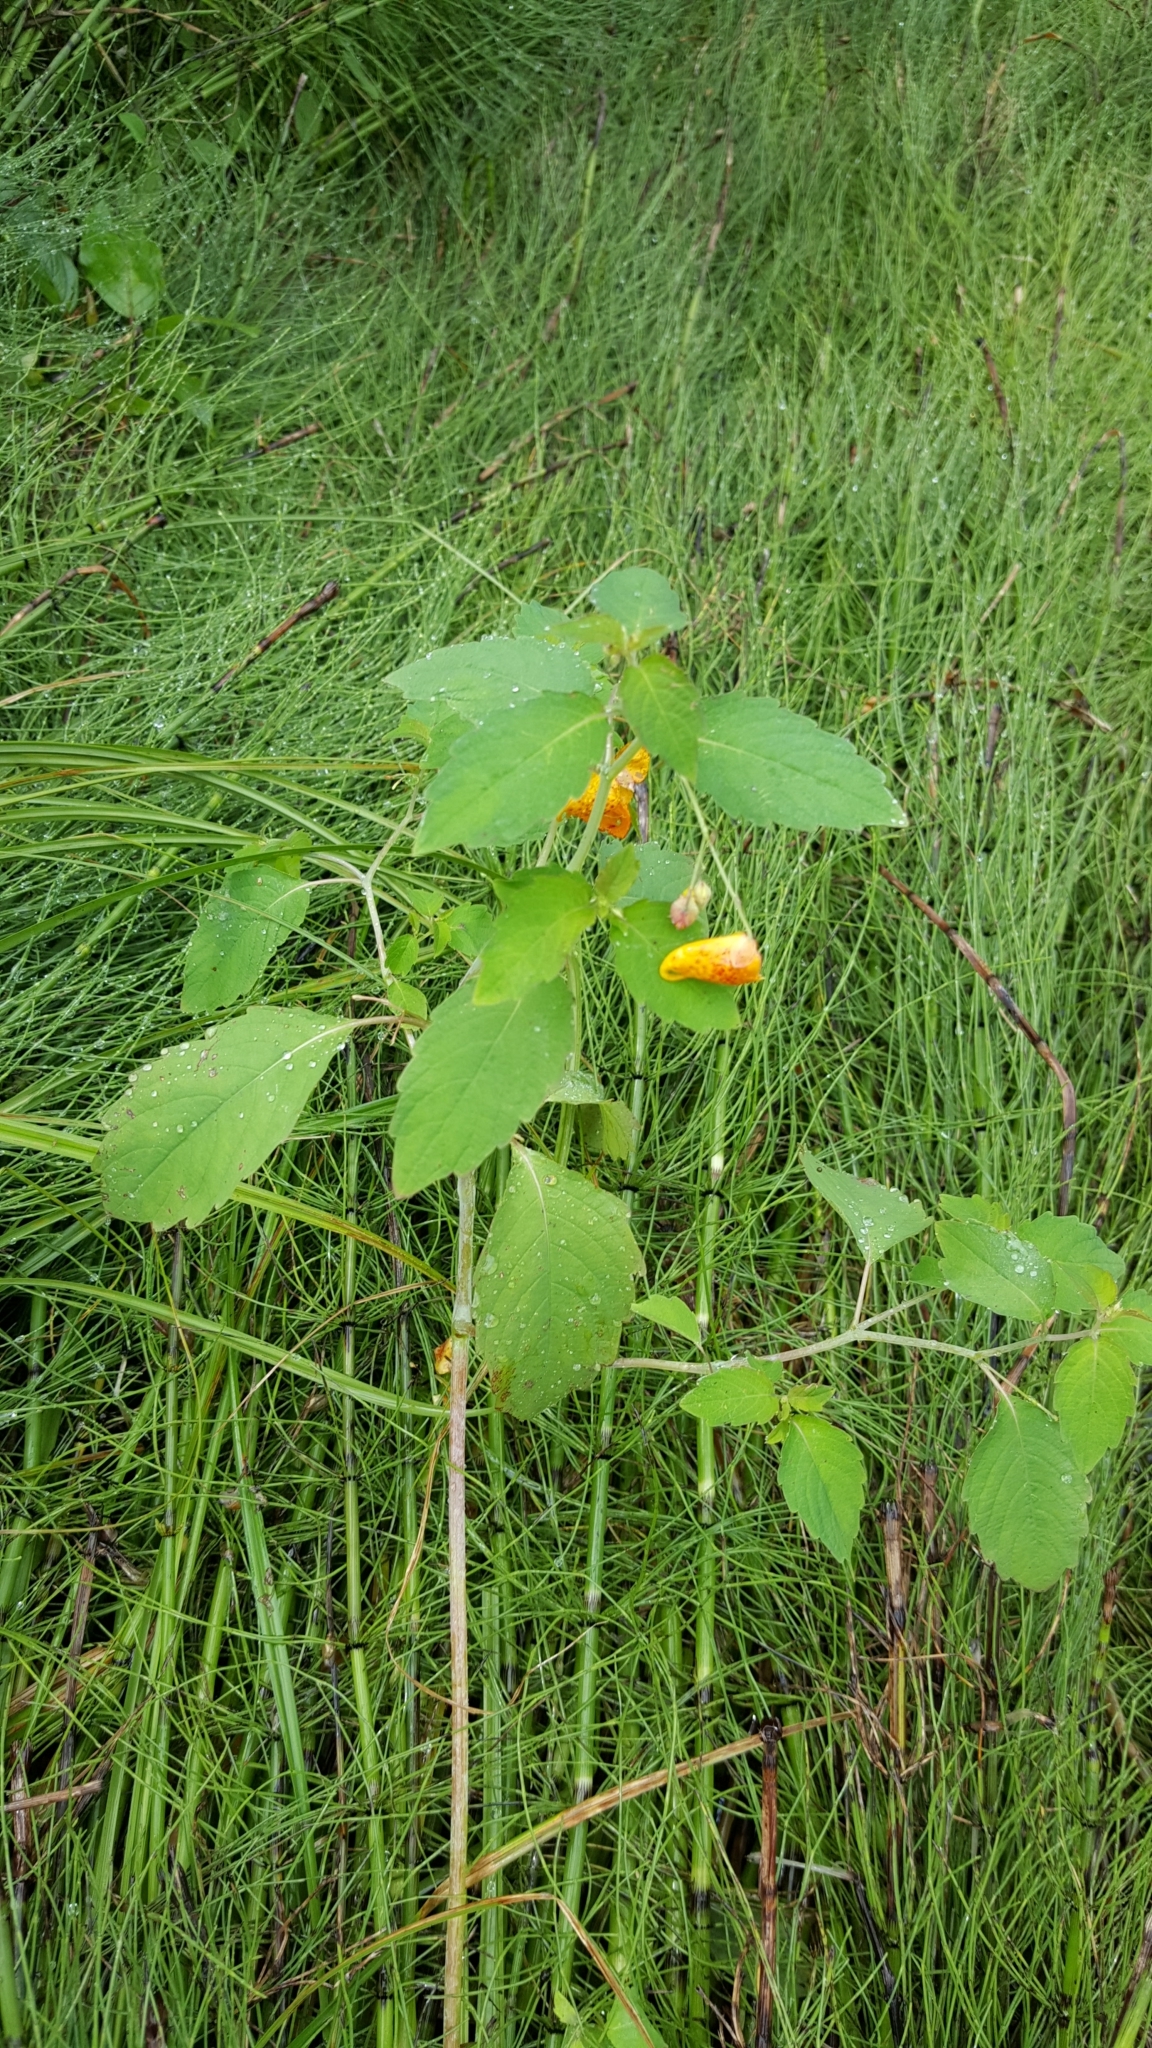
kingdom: Plantae
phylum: Tracheophyta
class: Magnoliopsida
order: Ericales
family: Balsaminaceae
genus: Impatiens
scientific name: Impatiens capensis
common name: Orange balsam
